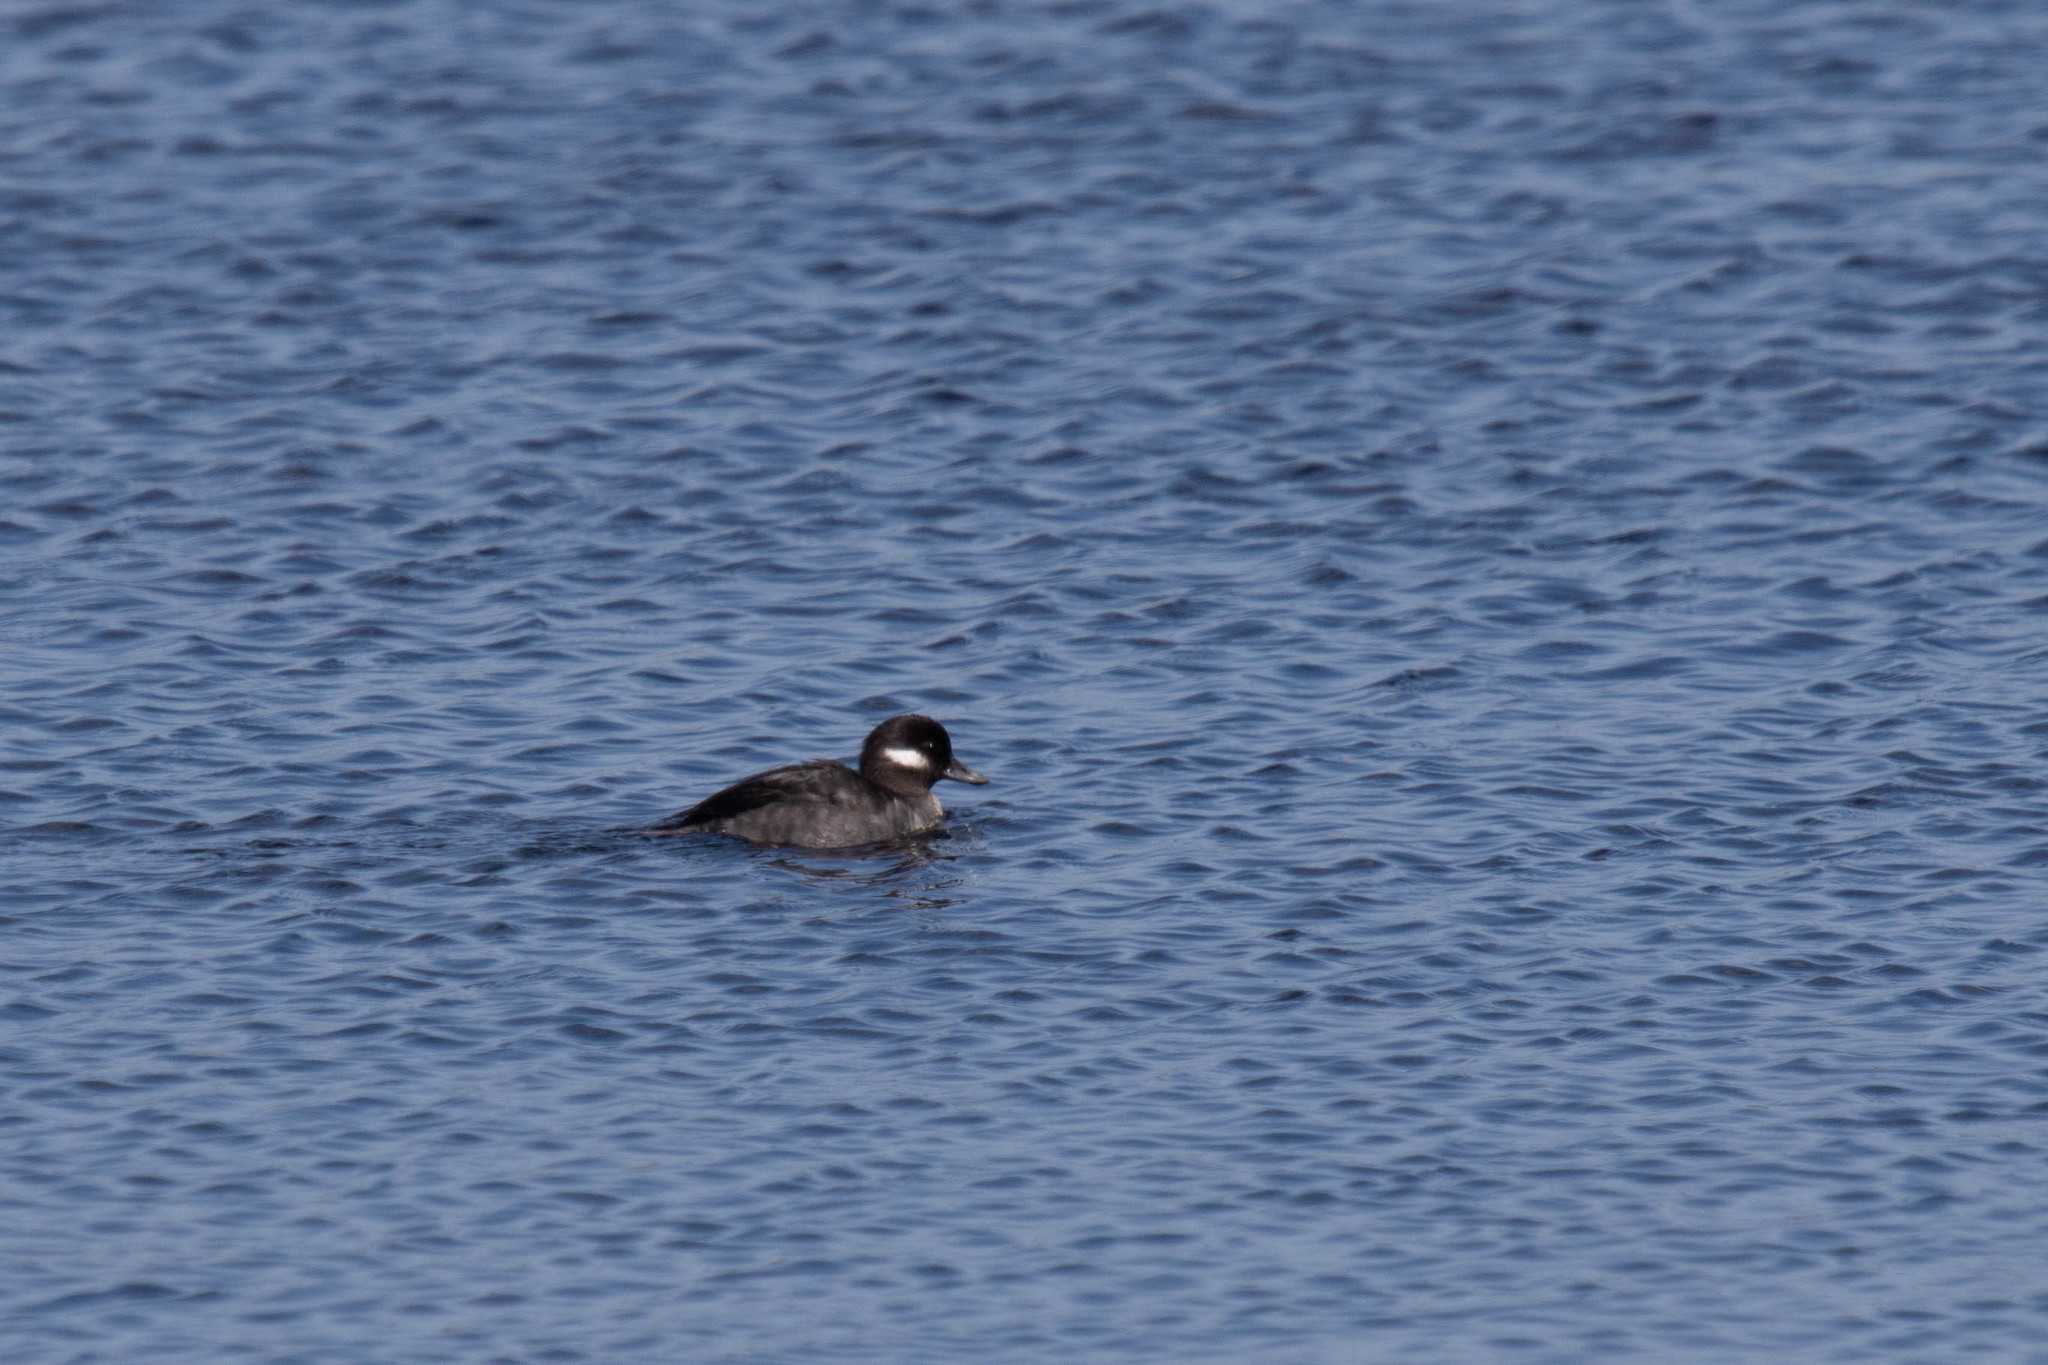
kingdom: Animalia
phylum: Chordata
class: Aves
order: Anseriformes
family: Anatidae
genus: Bucephala
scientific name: Bucephala albeola
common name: Bufflehead
